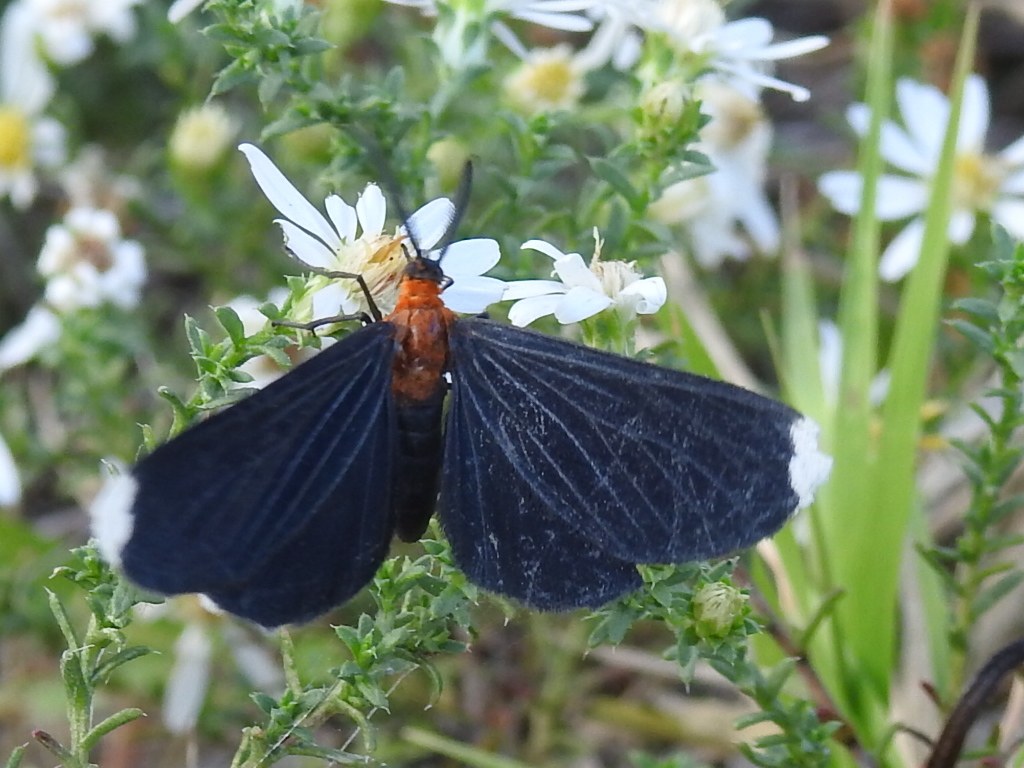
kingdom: Animalia
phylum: Arthropoda
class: Insecta
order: Lepidoptera
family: Geometridae
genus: Melanchroia
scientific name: Melanchroia chephise
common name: White-tipped black
